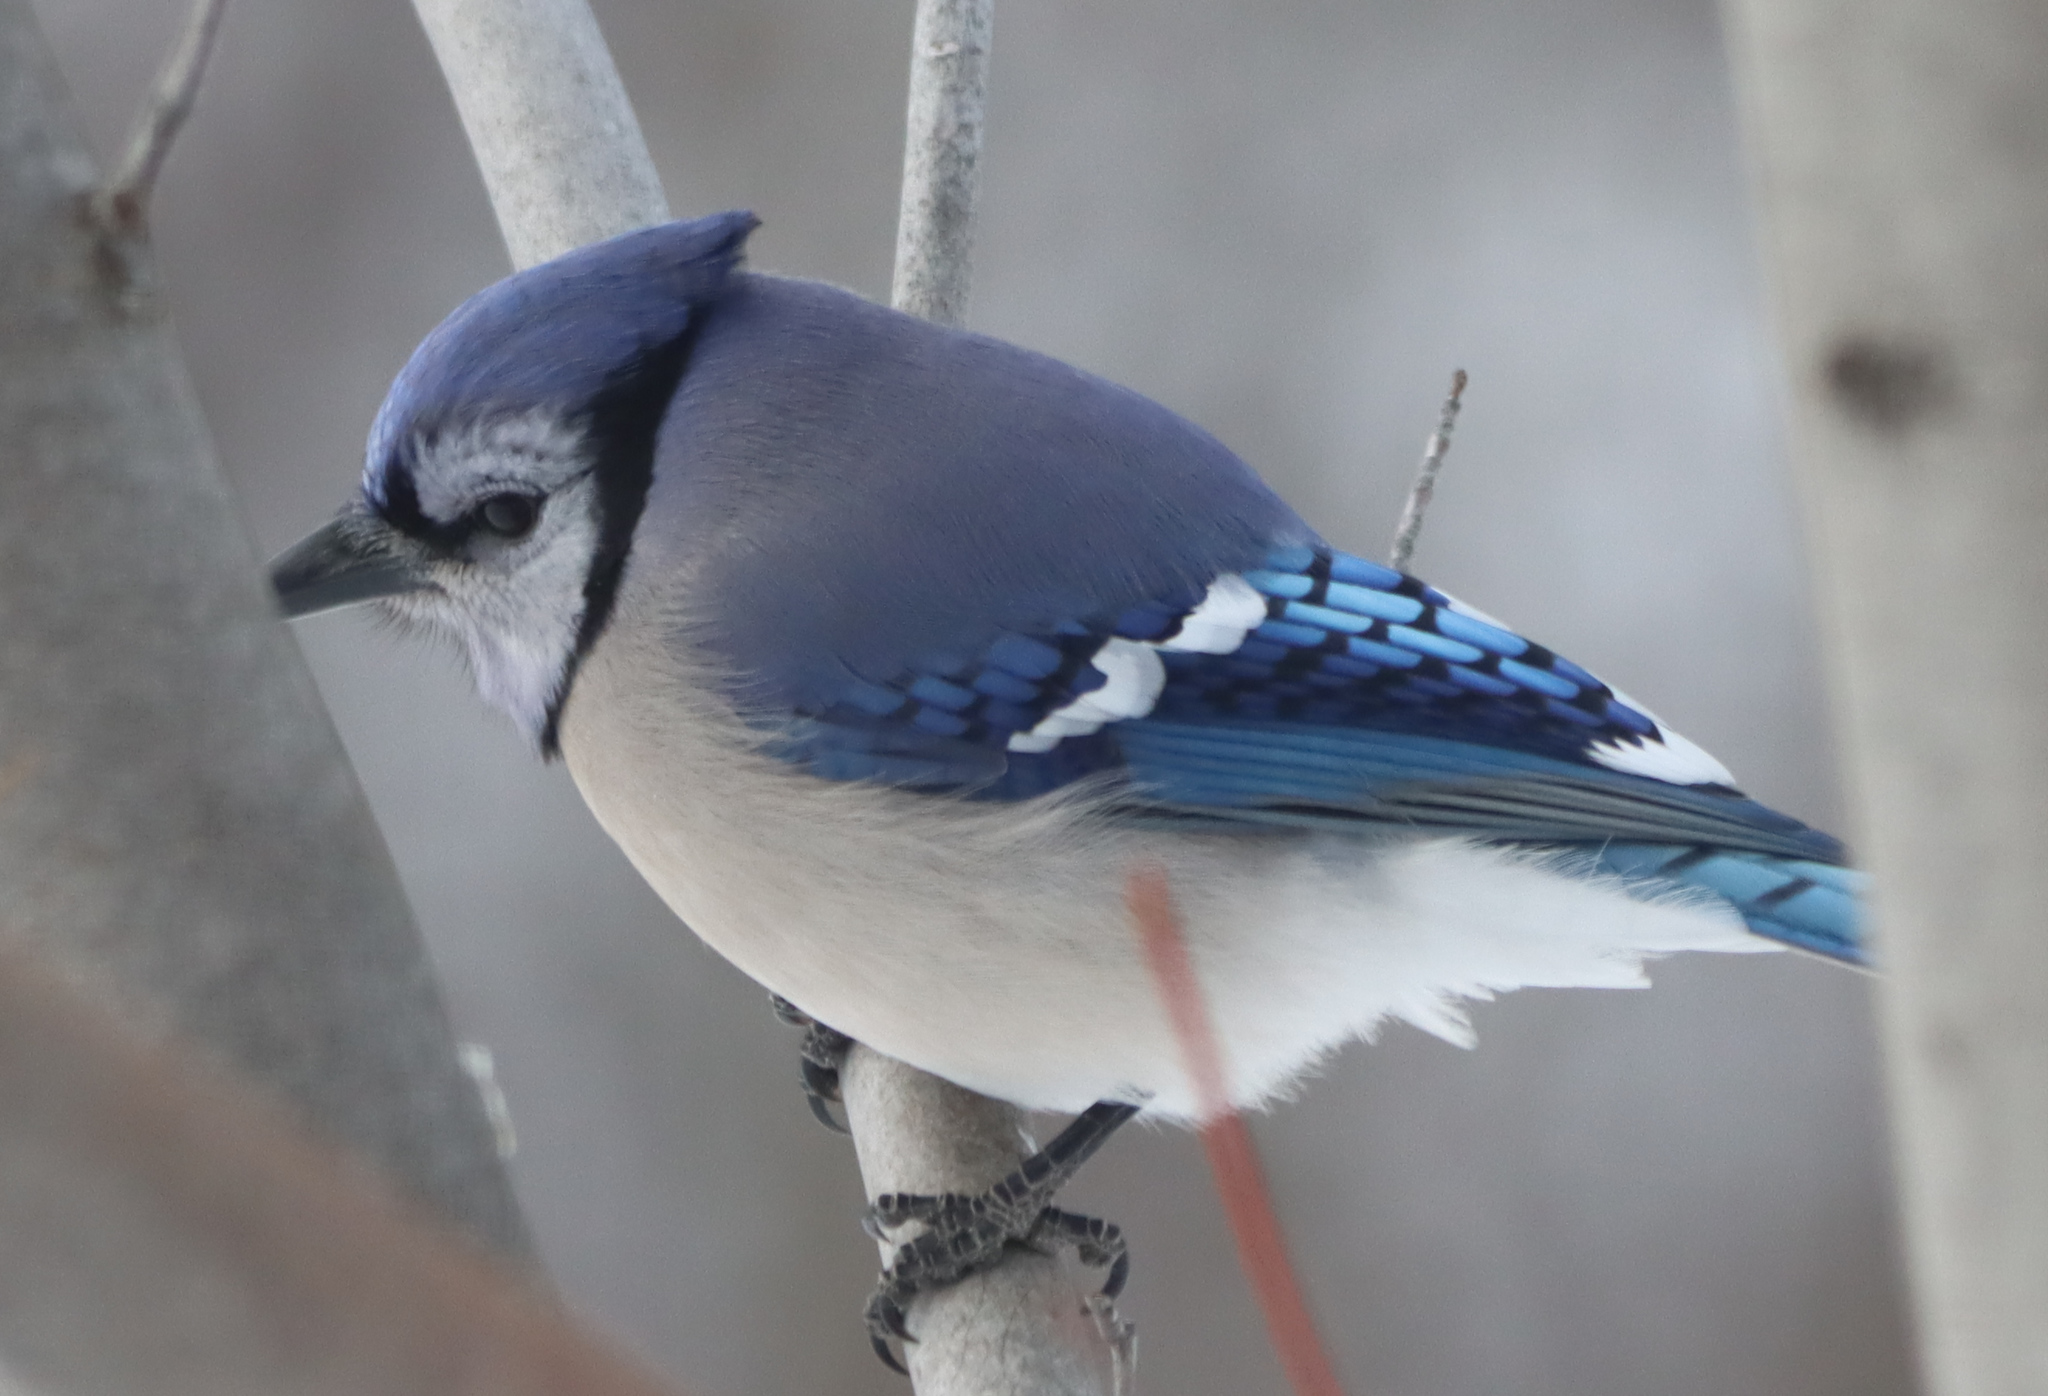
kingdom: Animalia
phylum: Chordata
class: Aves
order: Passeriformes
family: Corvidae
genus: Cyanocitta
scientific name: Cyanocitta cristata
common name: Blue jay
